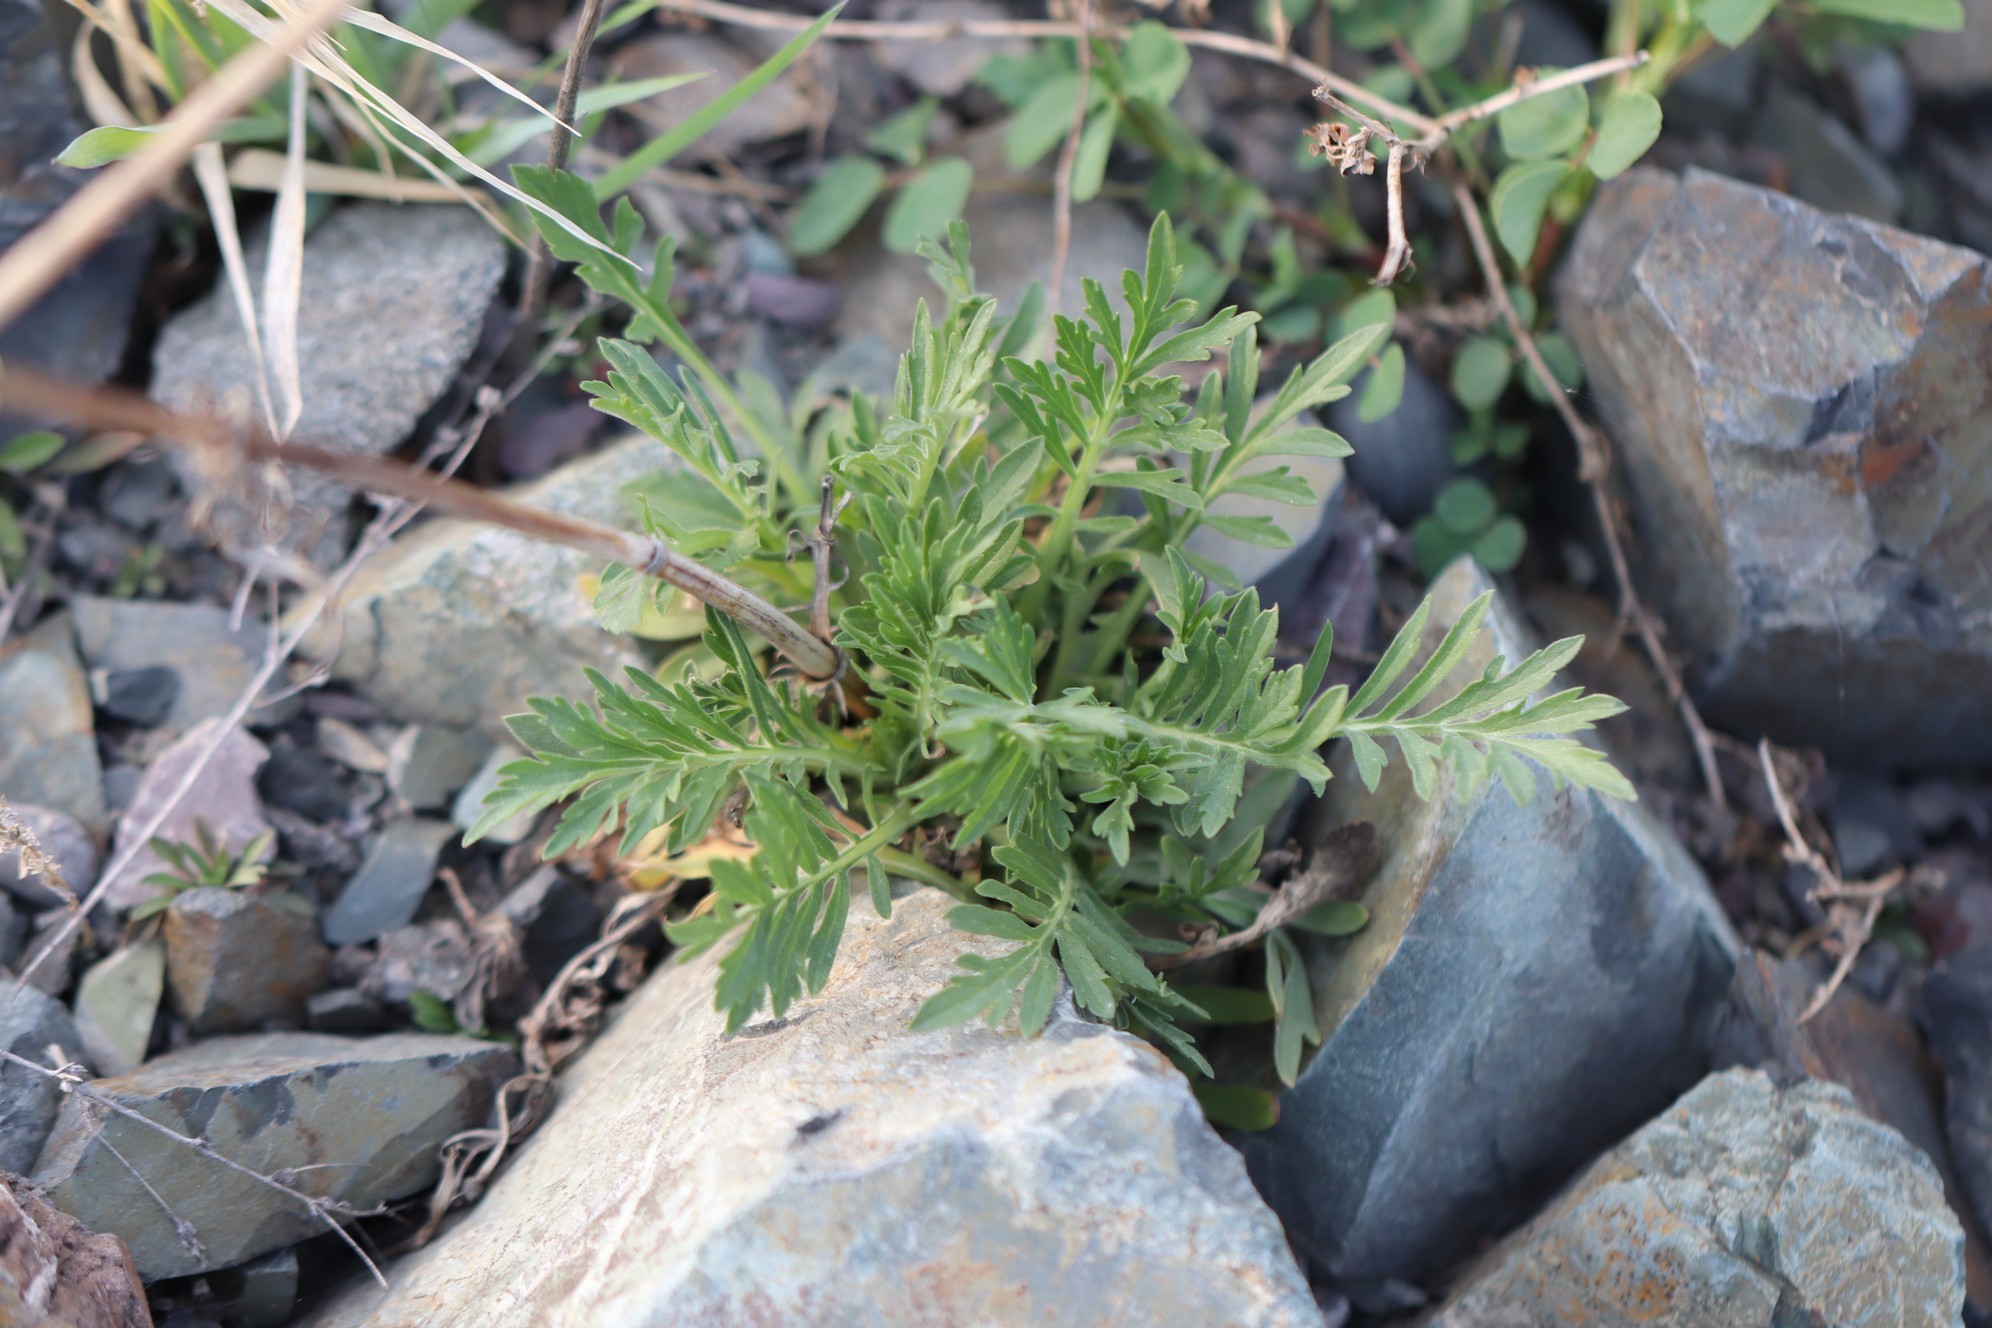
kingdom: Plantae
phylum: Tracheophyta
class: Magnoliopsida
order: Dipsacales
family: Caprifoliaceae
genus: Patrinia
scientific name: Patrinia intermedia
